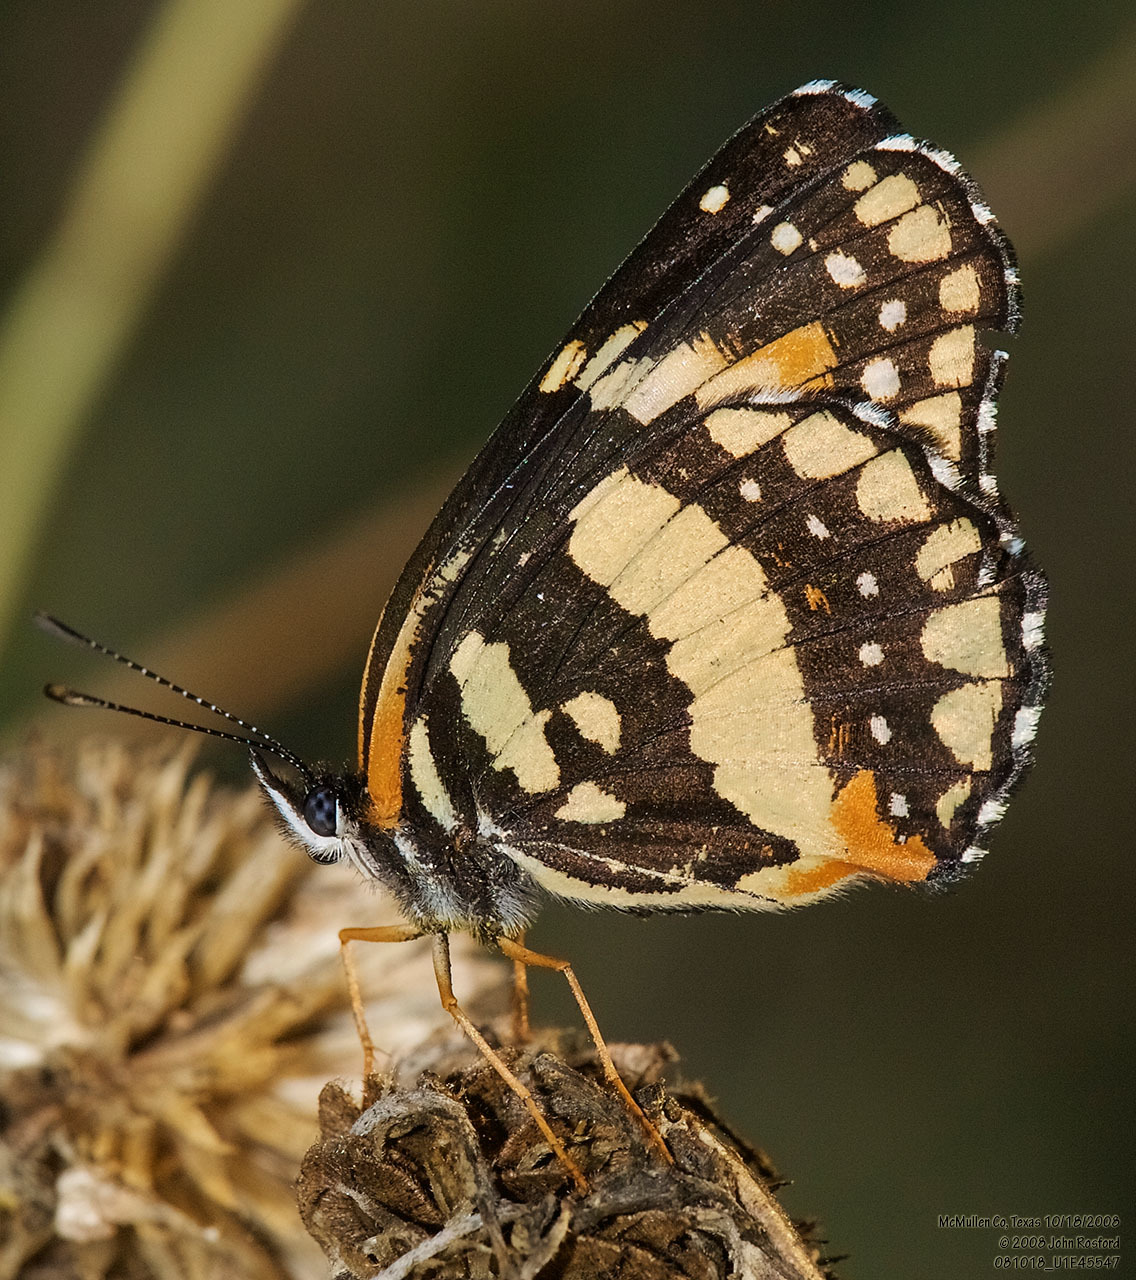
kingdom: Animalia
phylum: Arthropoda
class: Insecta
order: Lepidoptera
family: Nymphalidae
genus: Chlosyne
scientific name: Chlosyne lacinia
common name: Bordered patch
